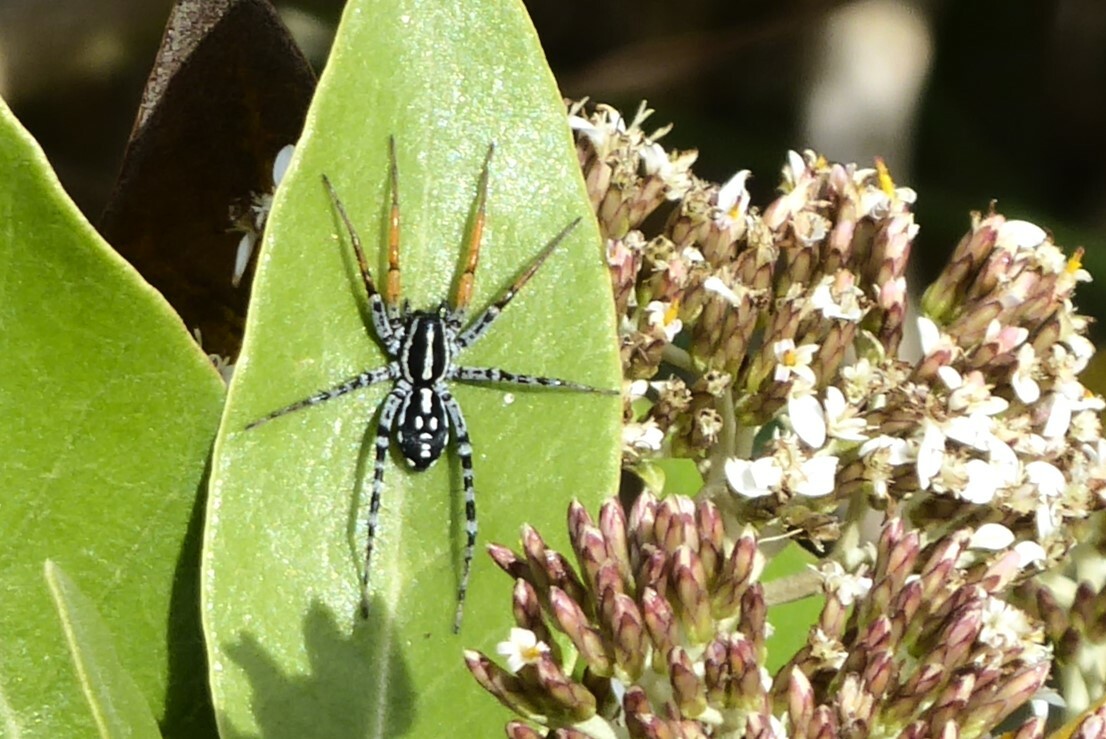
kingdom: Animalia
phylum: Arthropoda
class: Arachnida
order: Araneae
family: Corinnidae
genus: Nyssus
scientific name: Nyssus coloripes
